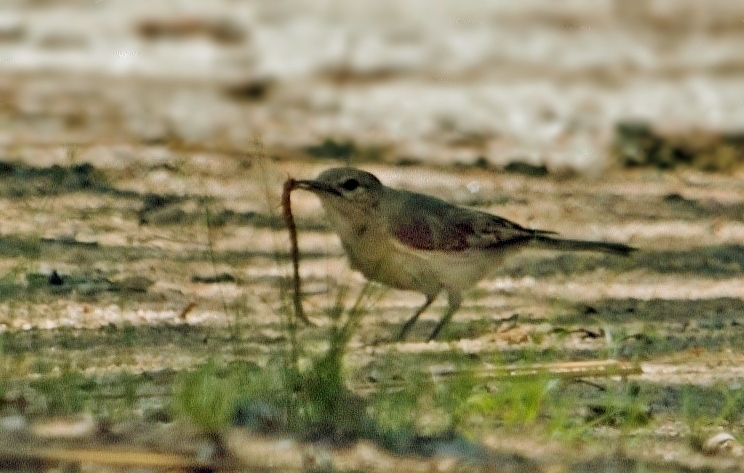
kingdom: Animalia
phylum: Chordata
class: Aves
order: Passeriformes
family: Muscicapidae
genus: Bradornis
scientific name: Bradornis pallidus
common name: Pale flycatcher
